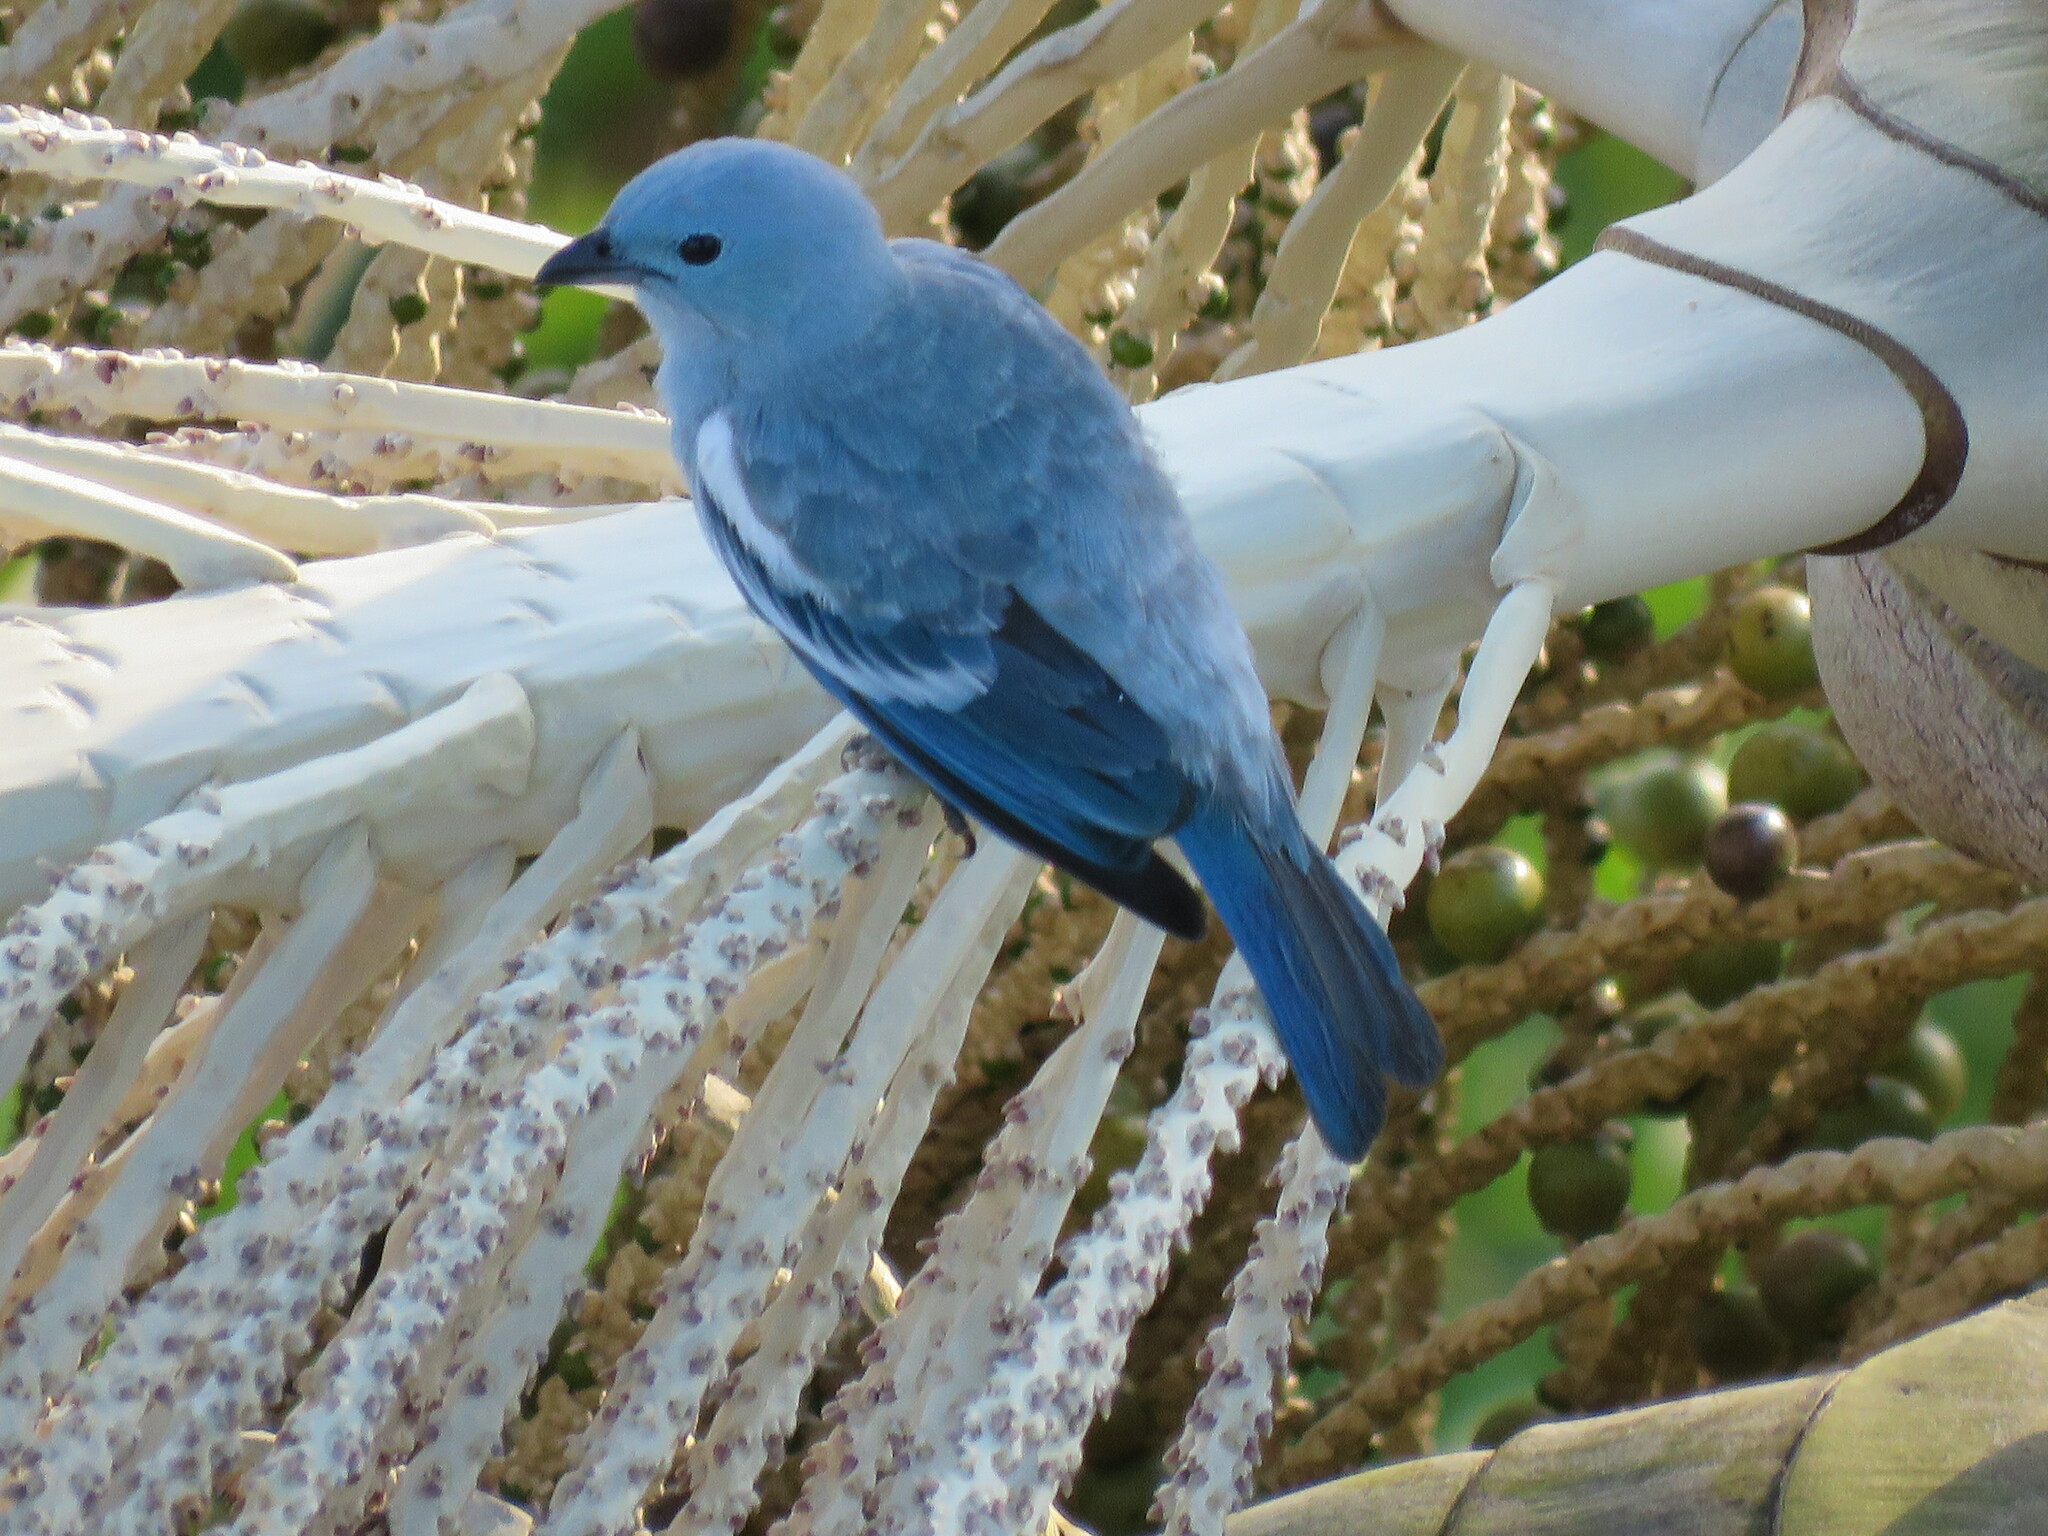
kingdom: Animalia
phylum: Chordata
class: Aves
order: Passeriformes
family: Thraupidae
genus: Thraupis
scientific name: Thraupis episcopus
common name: Blue-grey tanager
